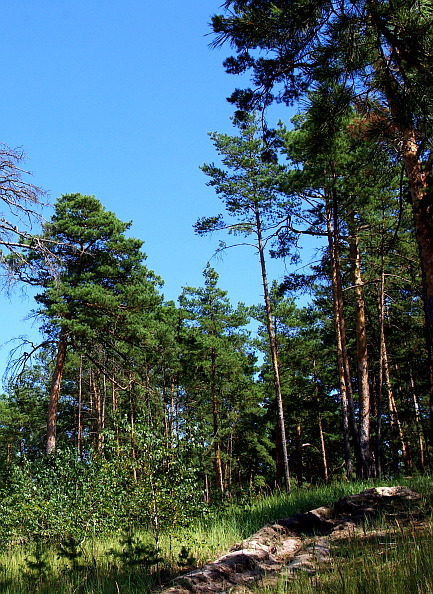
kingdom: Plantae
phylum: Tracheophyta
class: Pinopsida
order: Pinales
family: Pinaceae
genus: Pinus
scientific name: Pinus sylvestris
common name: Scots pine
